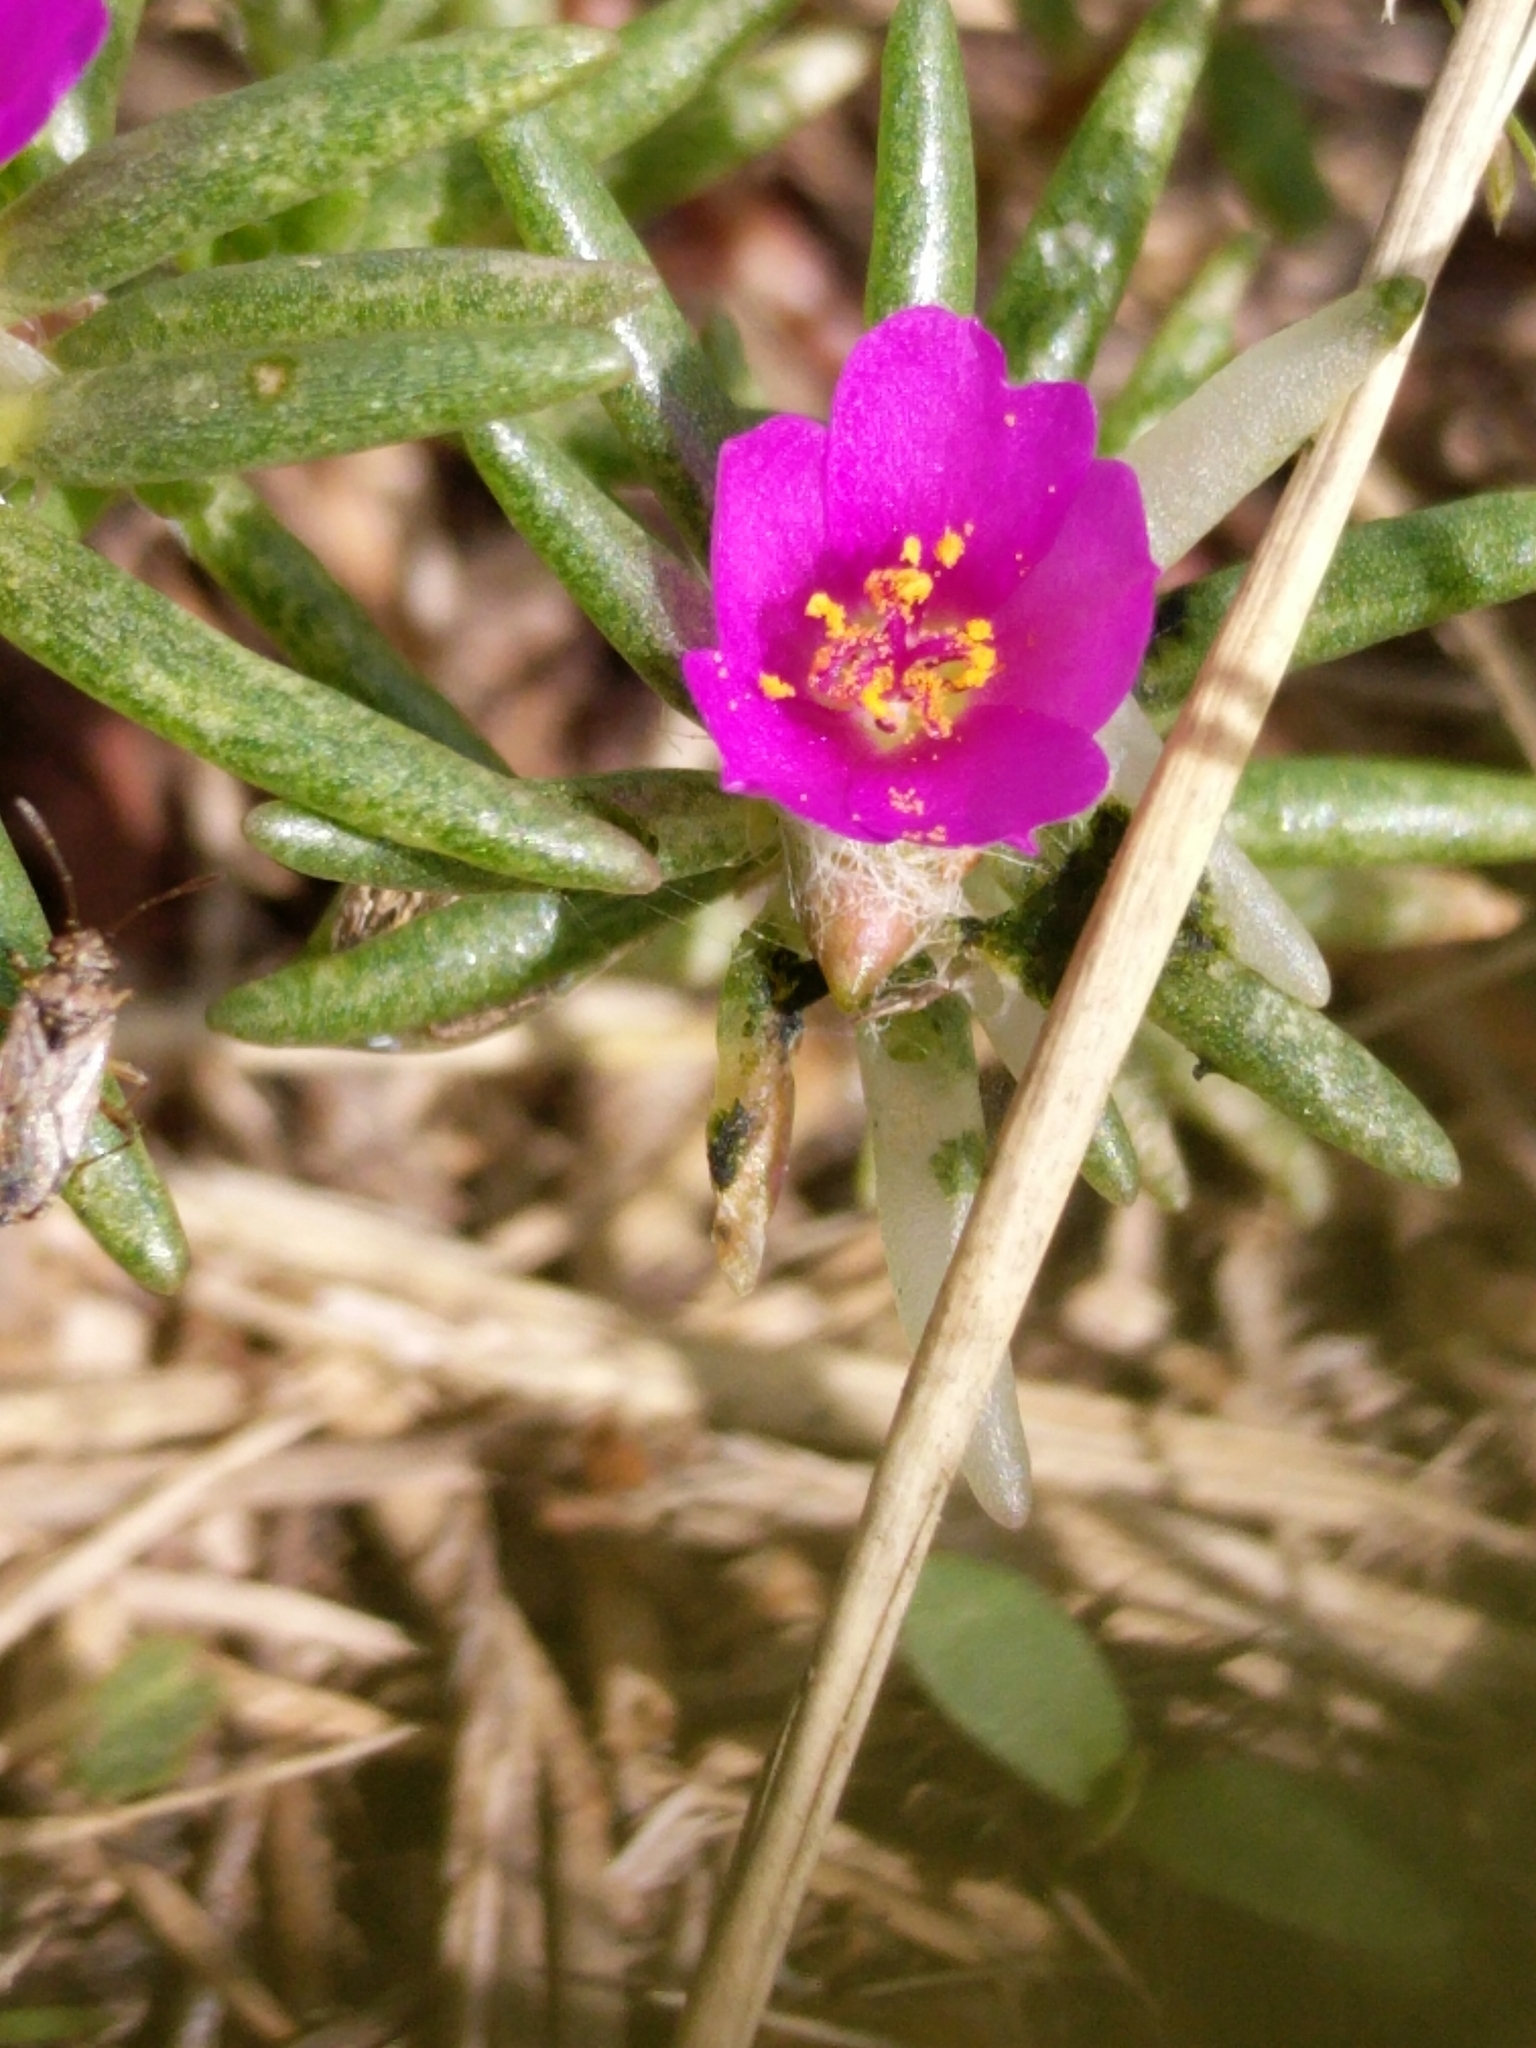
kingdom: Plantae
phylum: Tracheophyta
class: Magnoliopsida
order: Caryophyllales
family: Portulacaceae
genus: Portulaca
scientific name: Portulaca pilosa
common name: Kiss me quick
